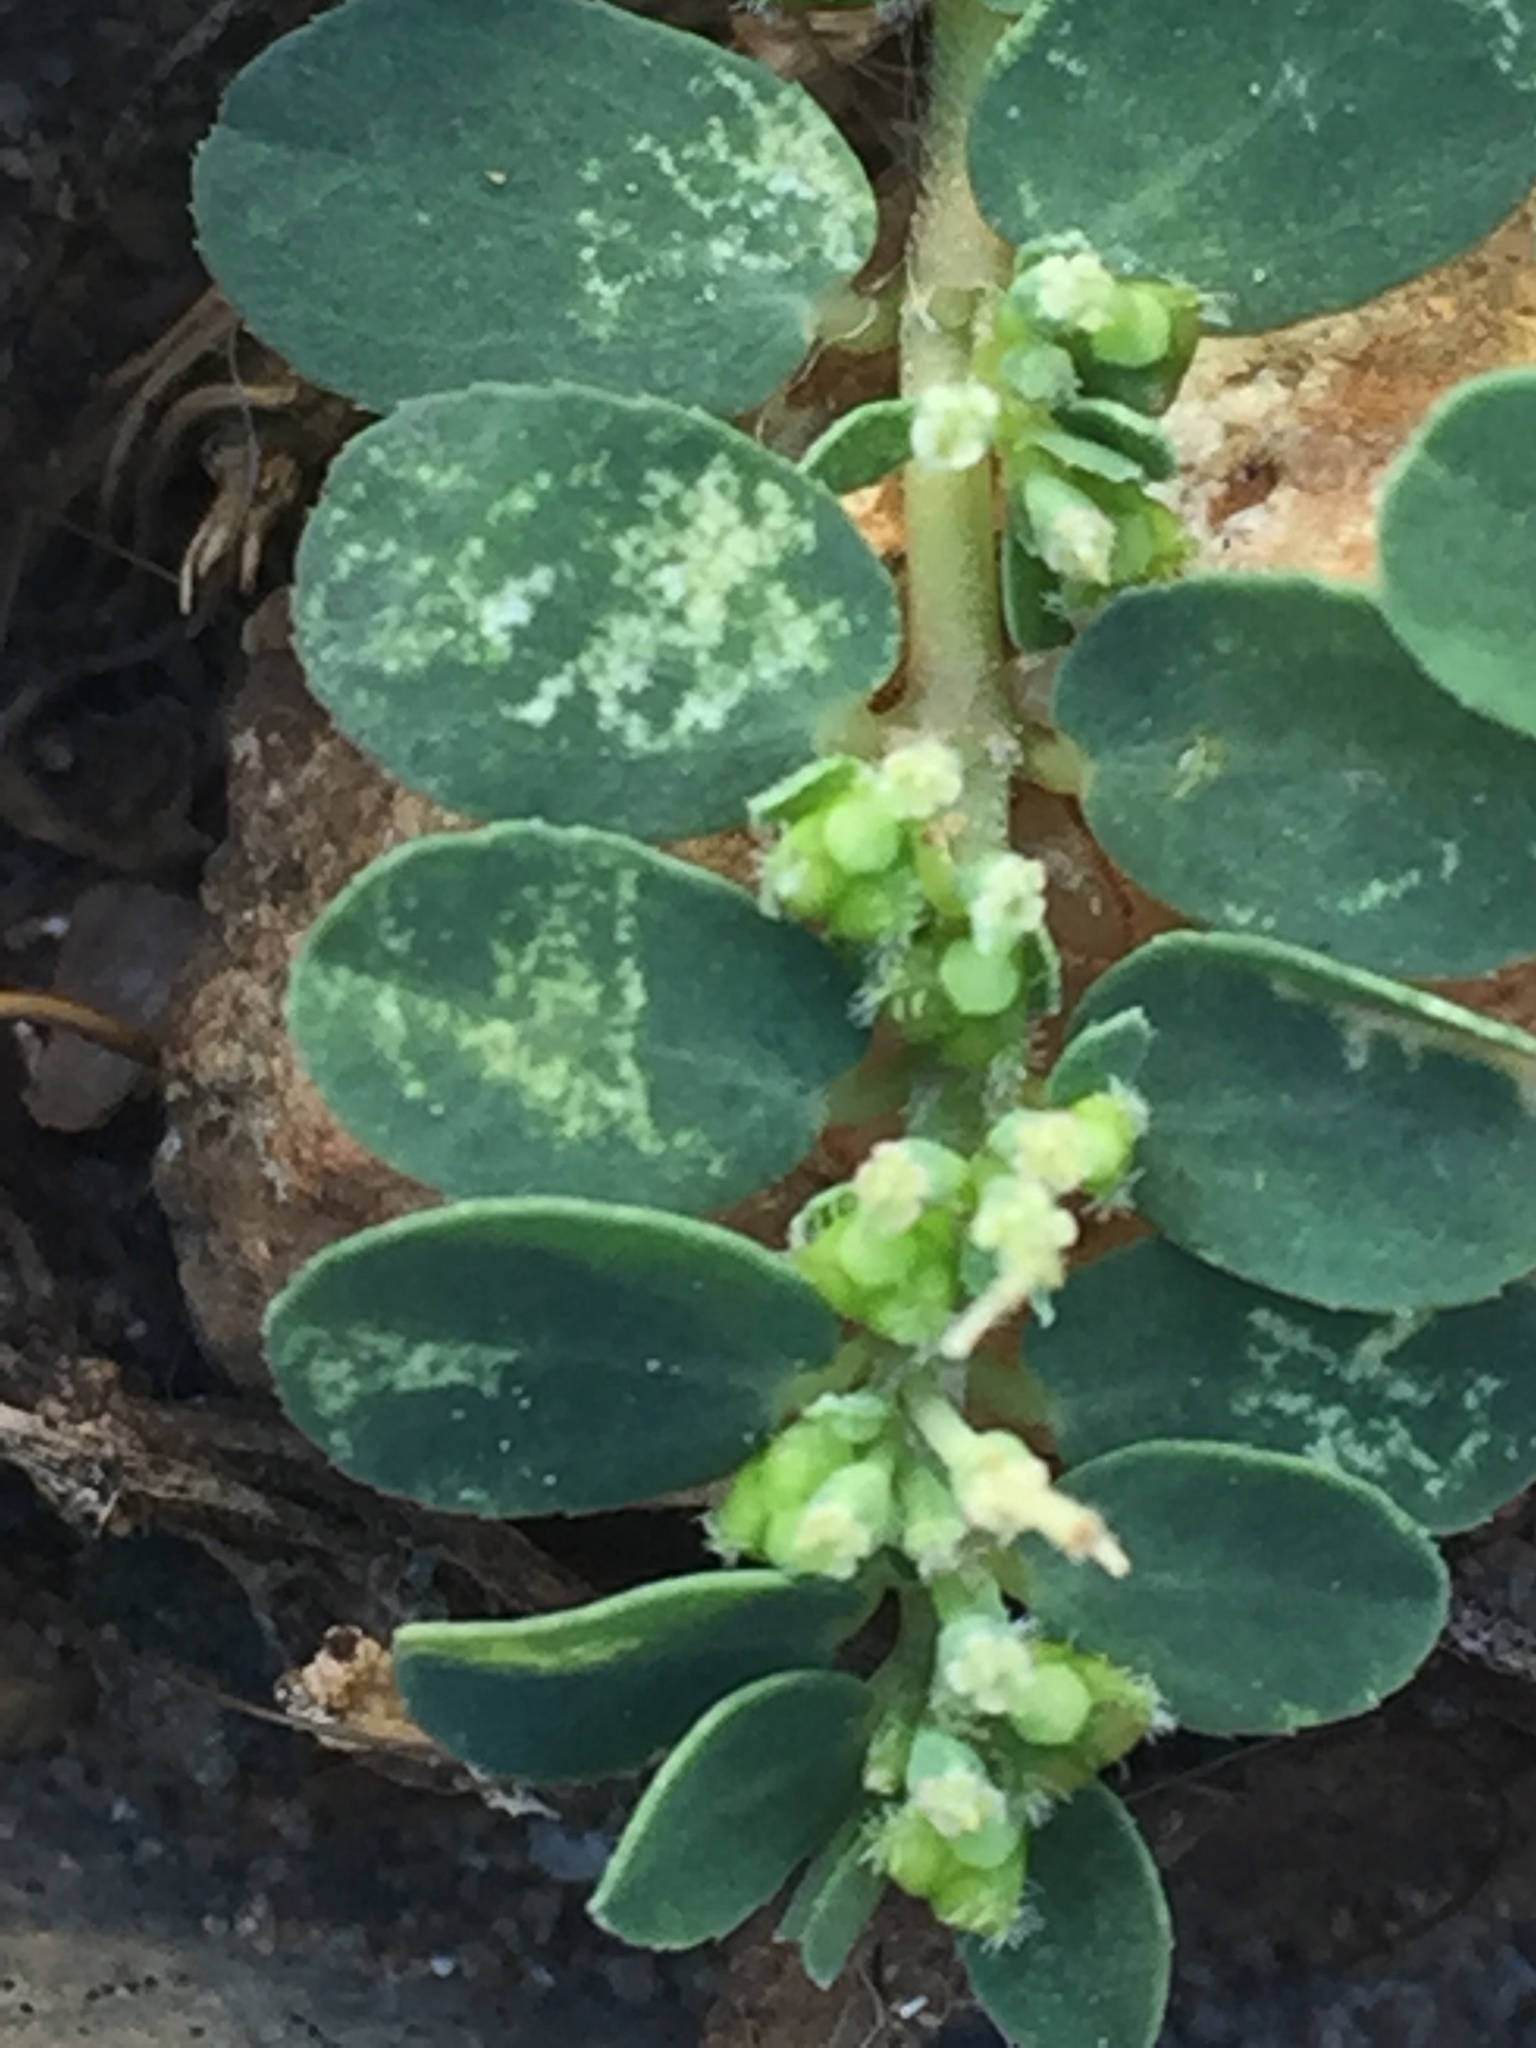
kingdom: Plantae
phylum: Tracheophyta
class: Magnoliopsida
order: Malpighiales
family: Euphorbiaceae
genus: Euphorbia
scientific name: Euphorbia prostrata
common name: Prostrate sandmat
